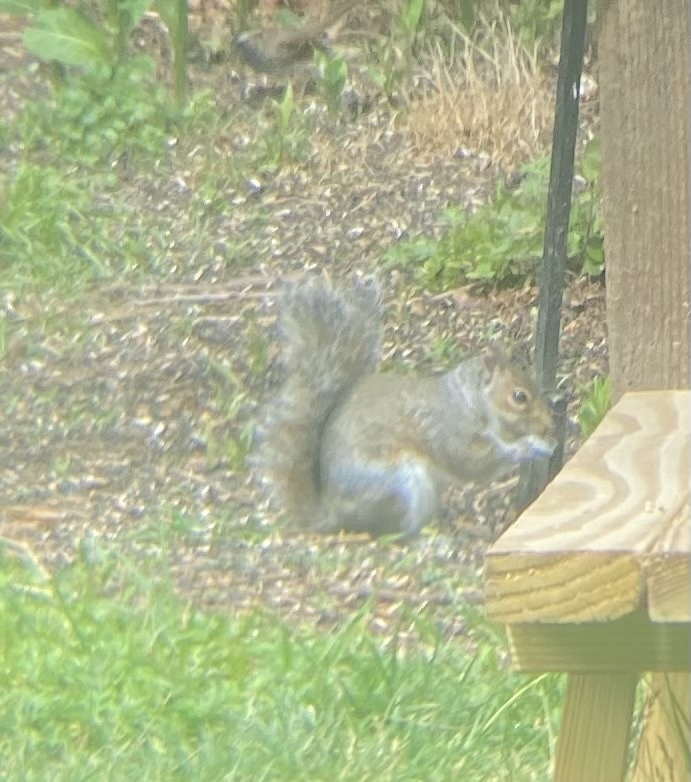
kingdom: Animalia
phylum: Chordata
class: Mammalia
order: Rodentia
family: Sciuridae
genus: Sciurus
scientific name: Sciurus carolinensis
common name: Eastern gray squirrel
